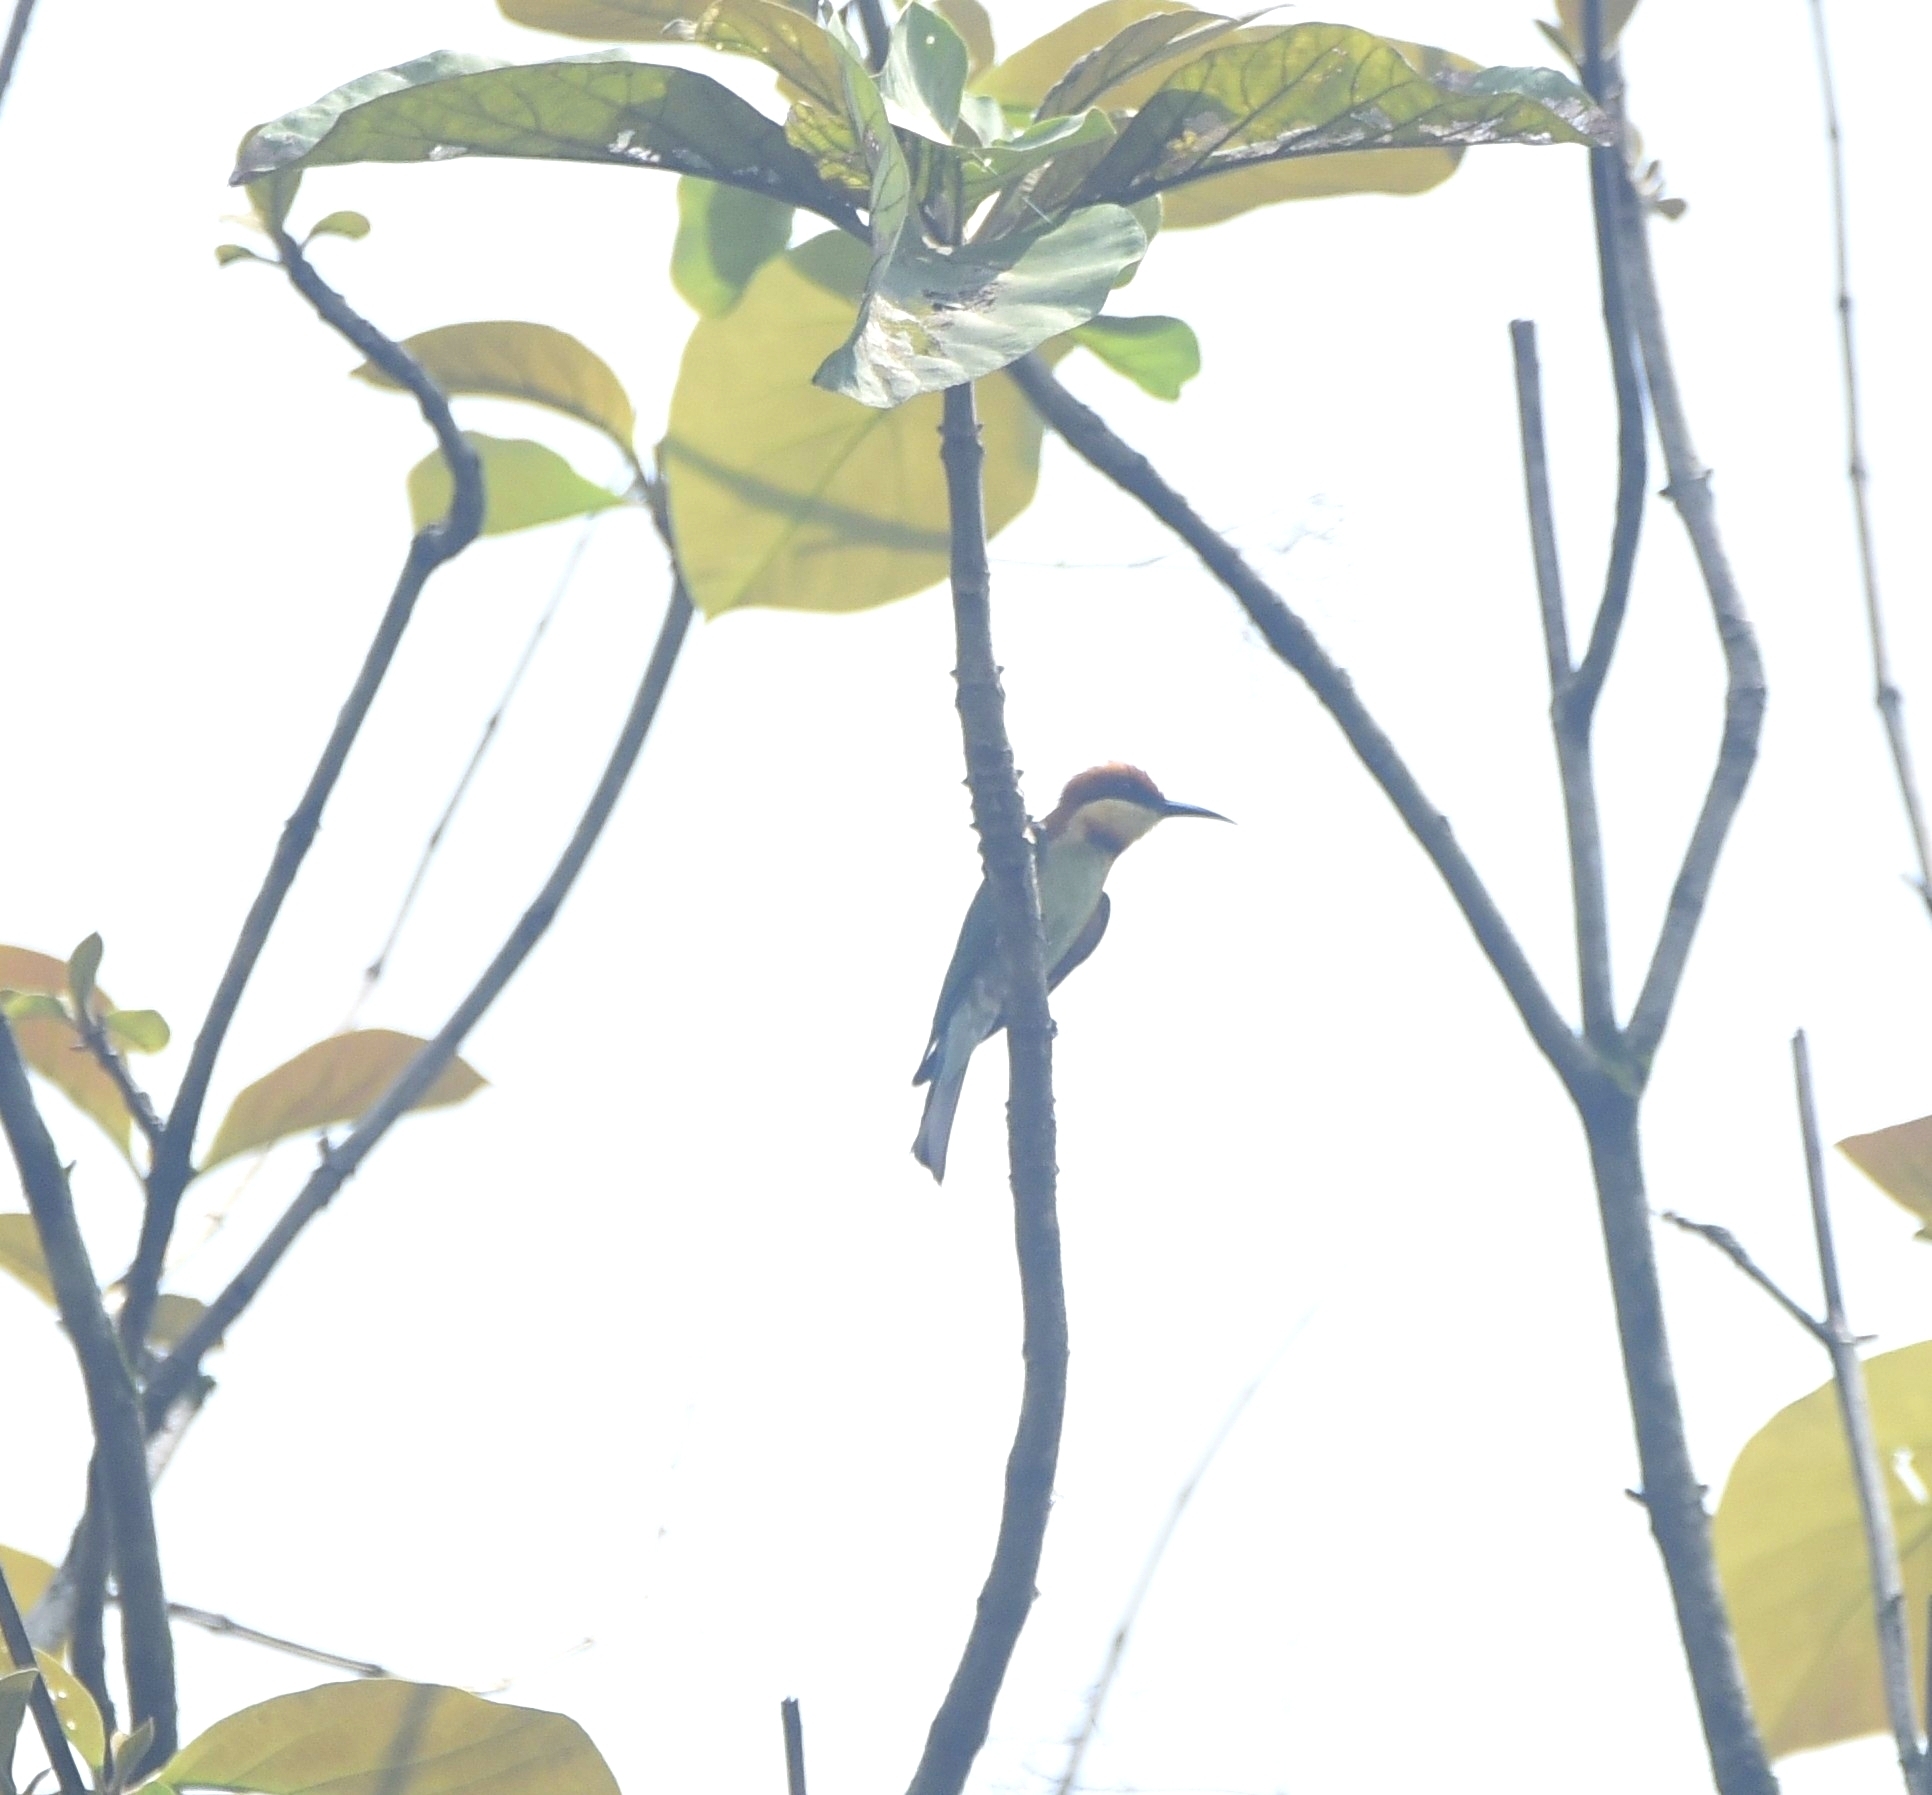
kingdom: Animalia
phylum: Chordata
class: Aves
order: Coraciiformes
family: Meropidae
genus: Merops
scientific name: Merops leschenaulti
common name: Chestnut-headed bee-eater
